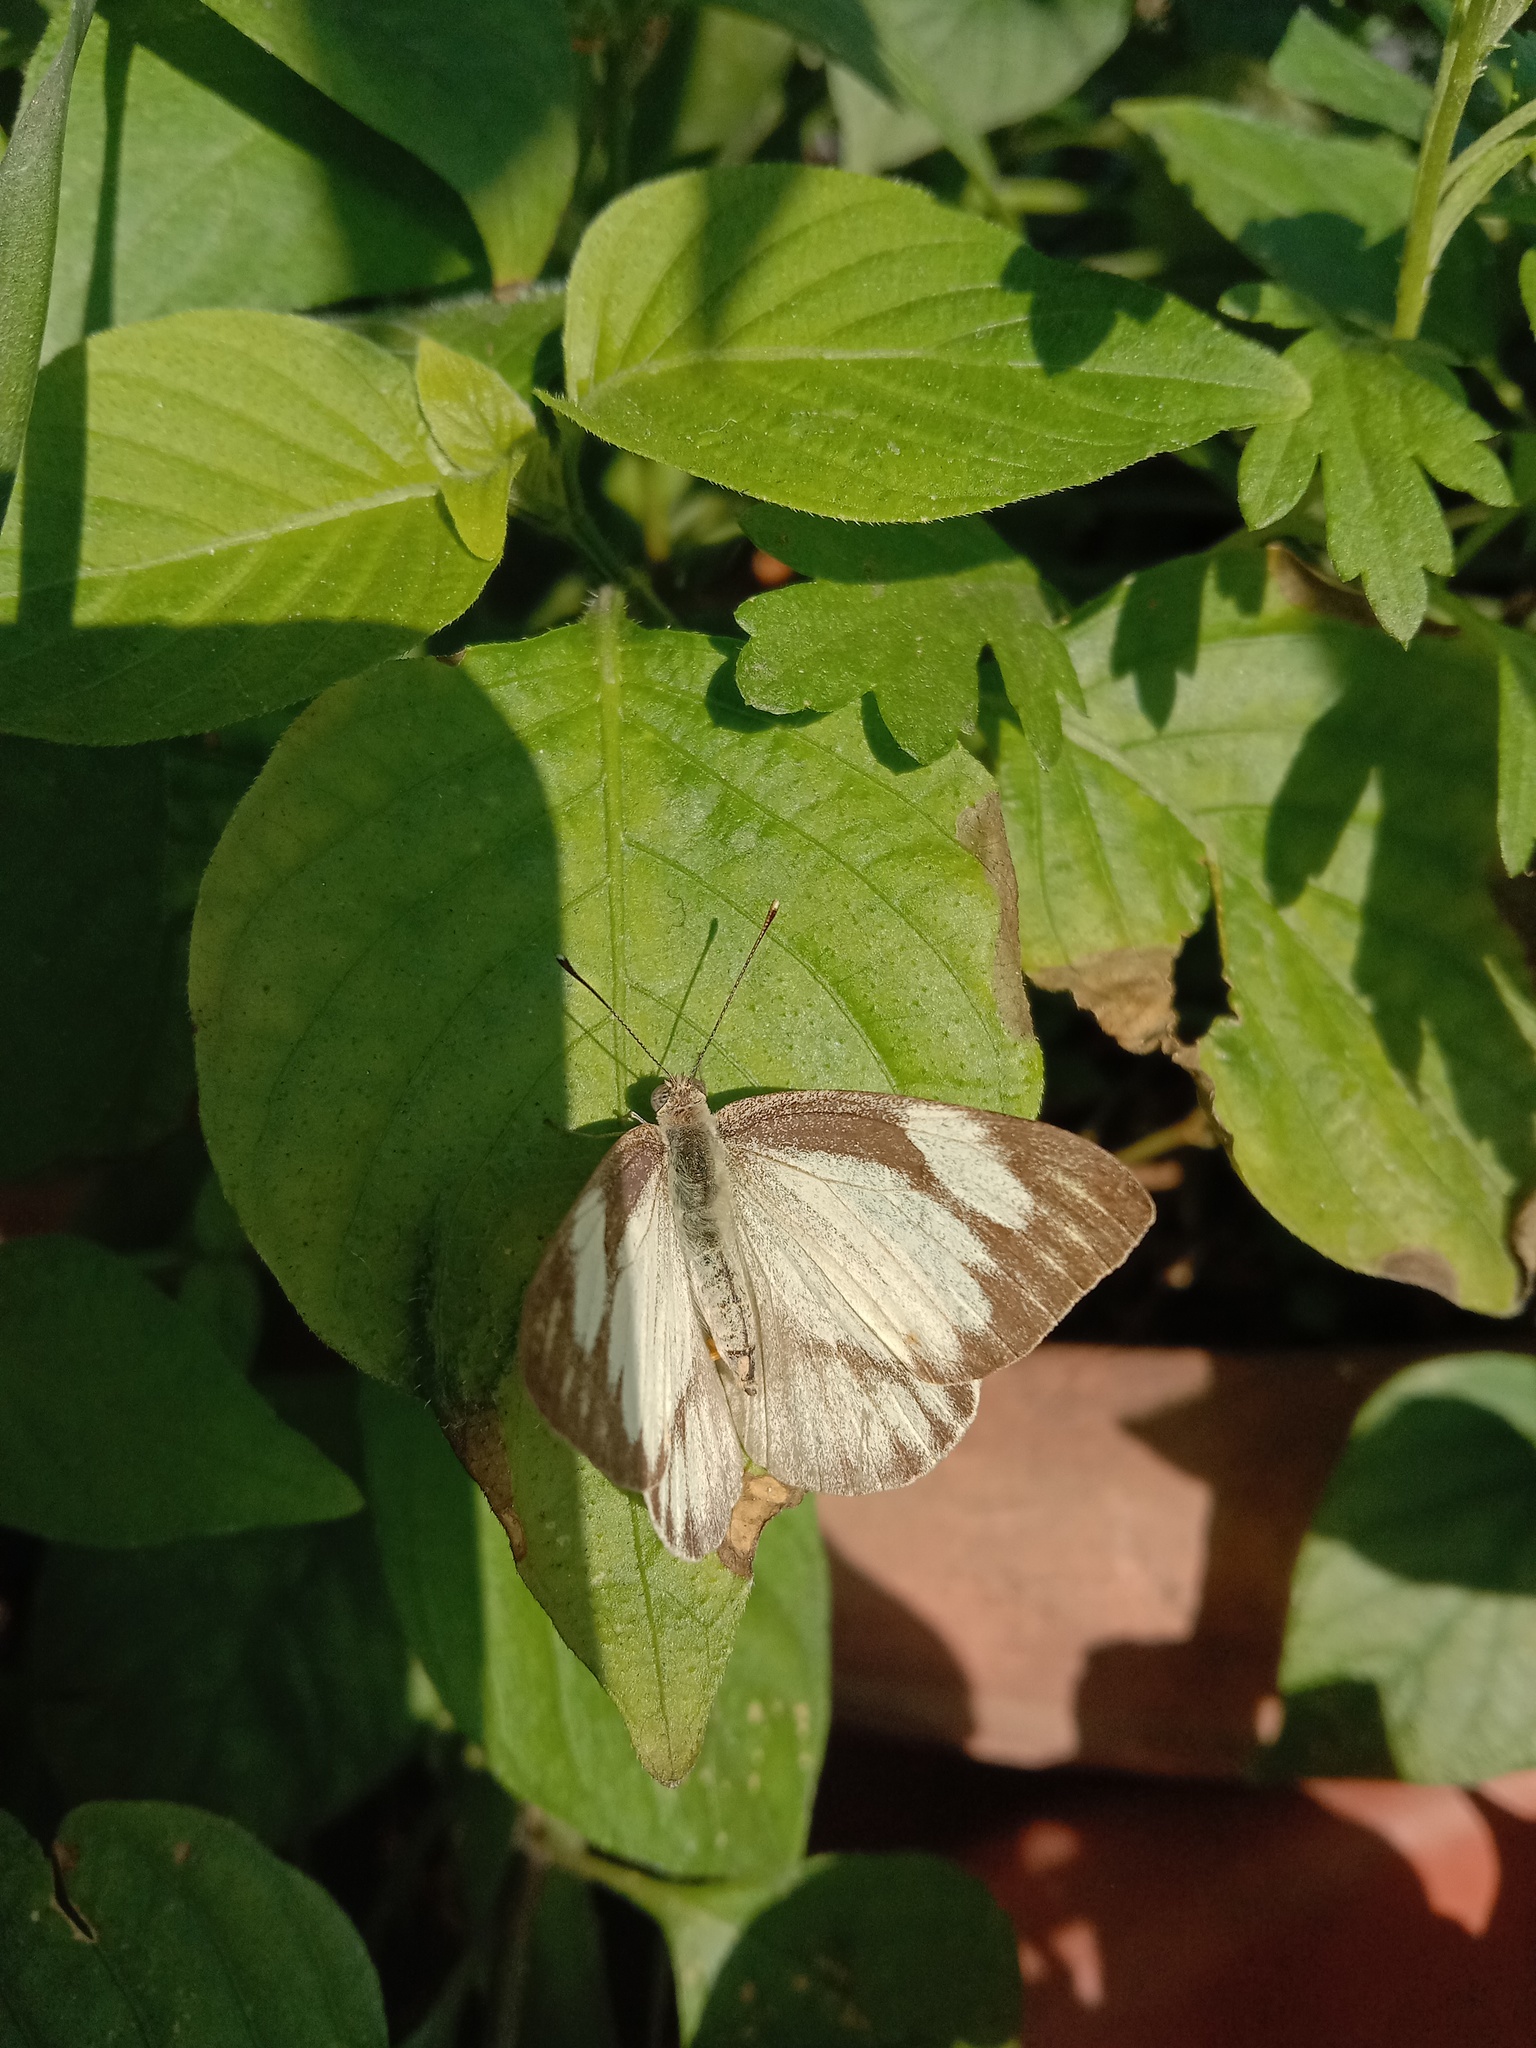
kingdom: Animalia
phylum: Arthropoda
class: Insecta
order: Lepidoptera
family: Pieridae
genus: Appias
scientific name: Appias olferna
